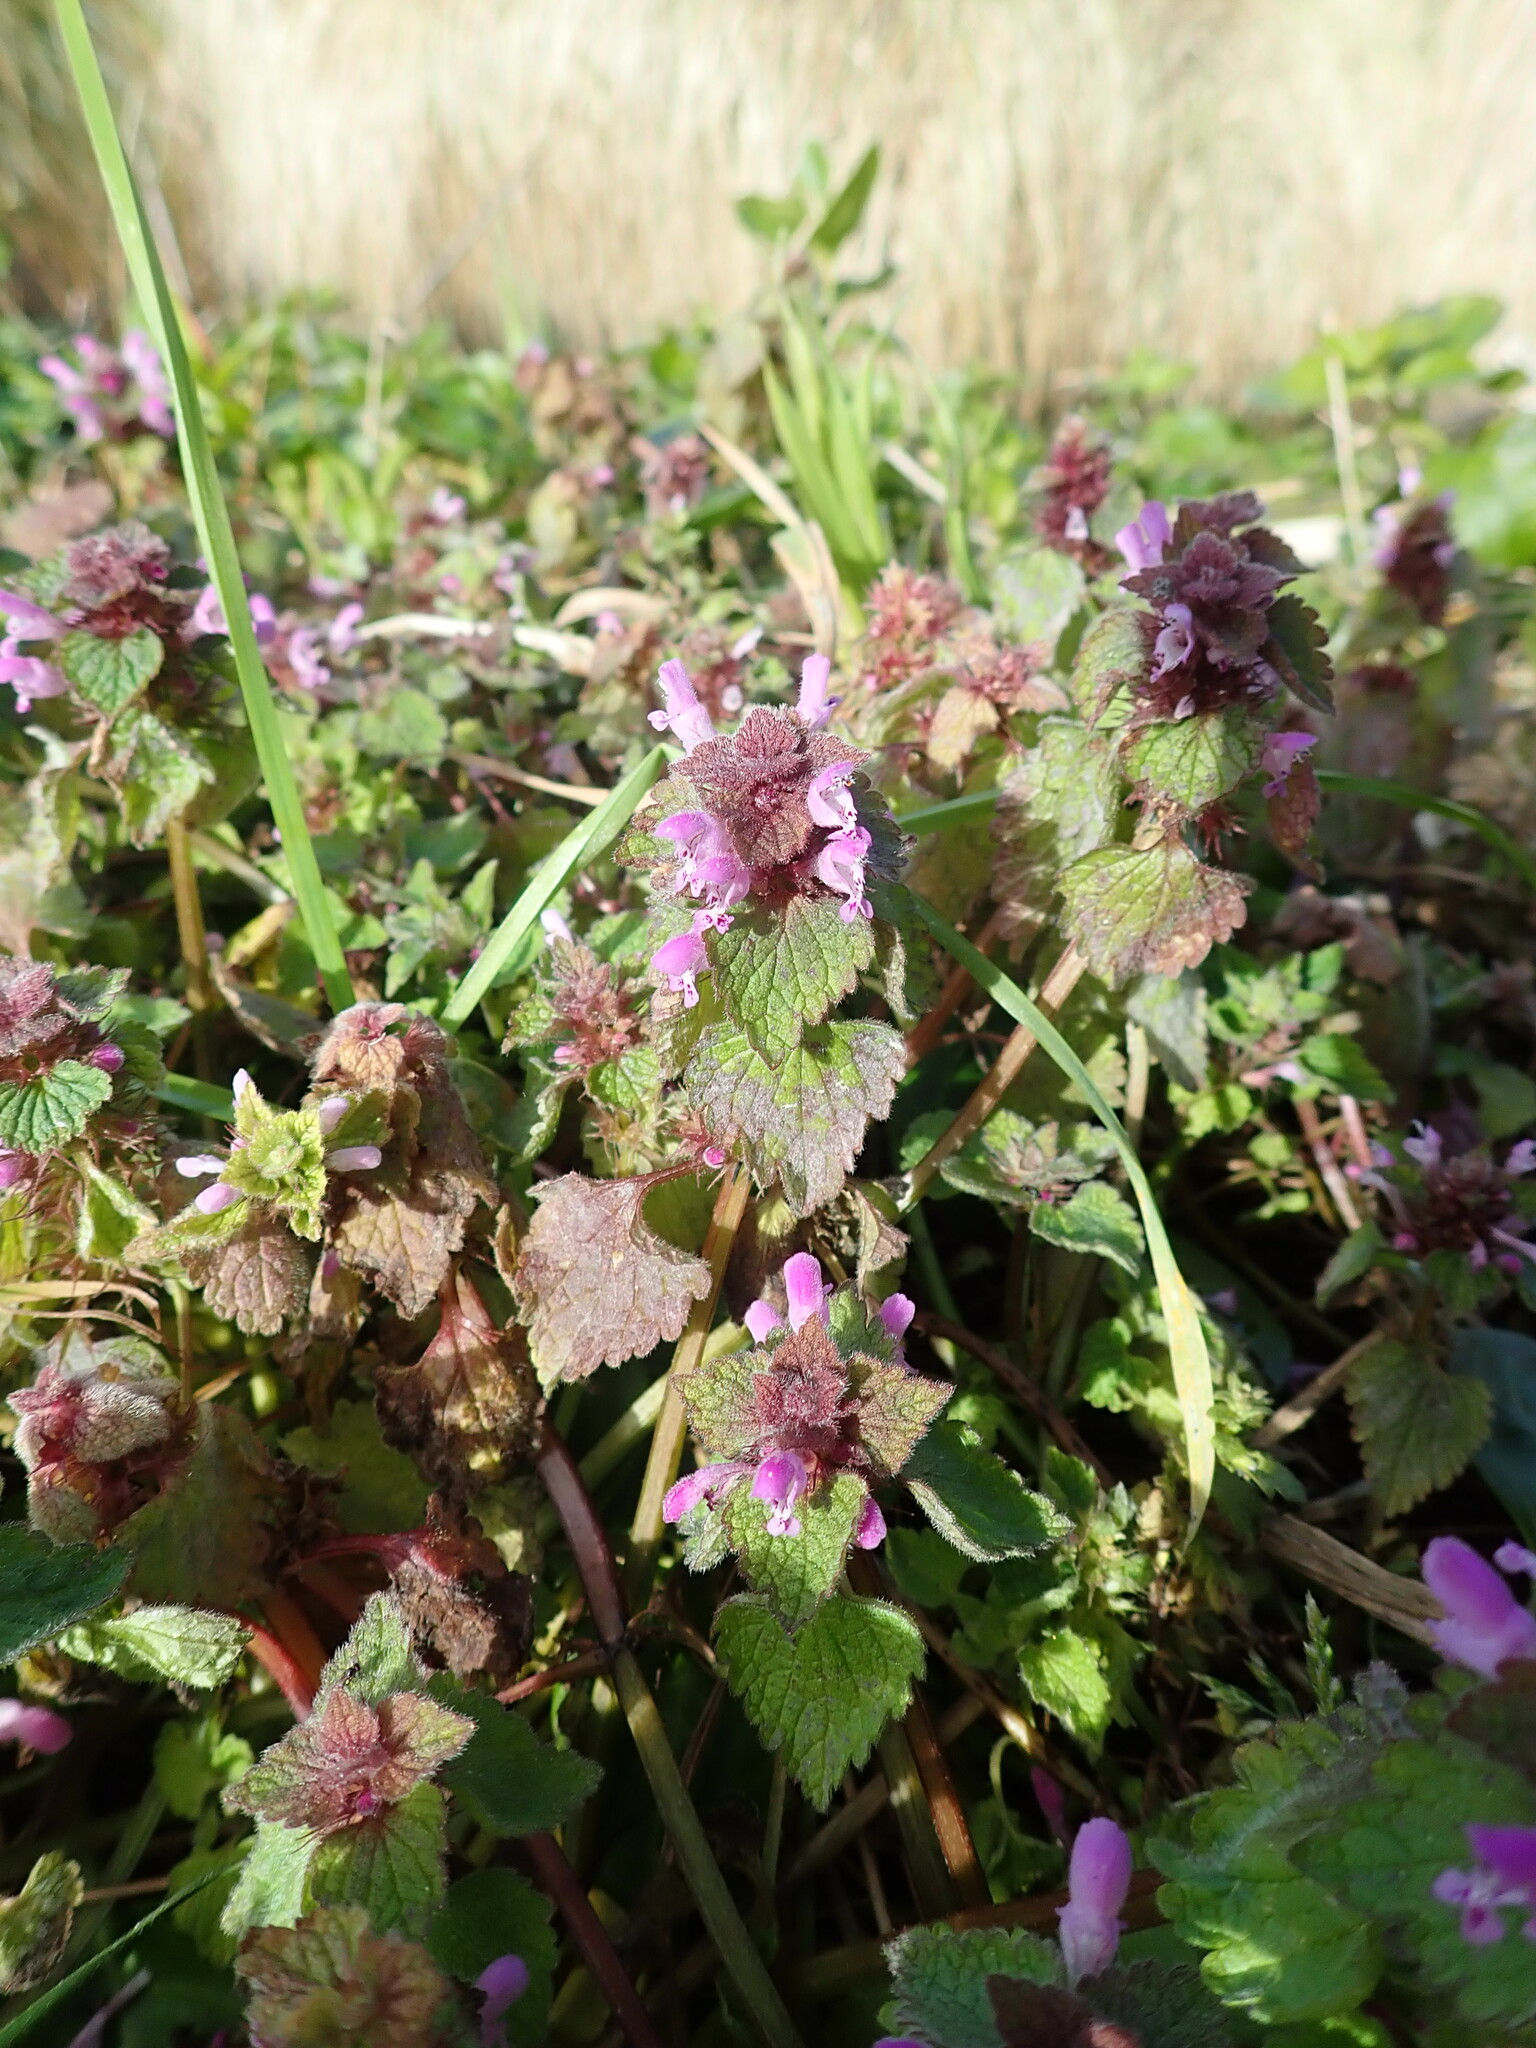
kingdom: Plantae
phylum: Tracheophyta
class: Magnoliopsida
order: Lamiales
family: Lamiaceae
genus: Lamium
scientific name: Lamium purpureum
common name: Red dead-nettle
